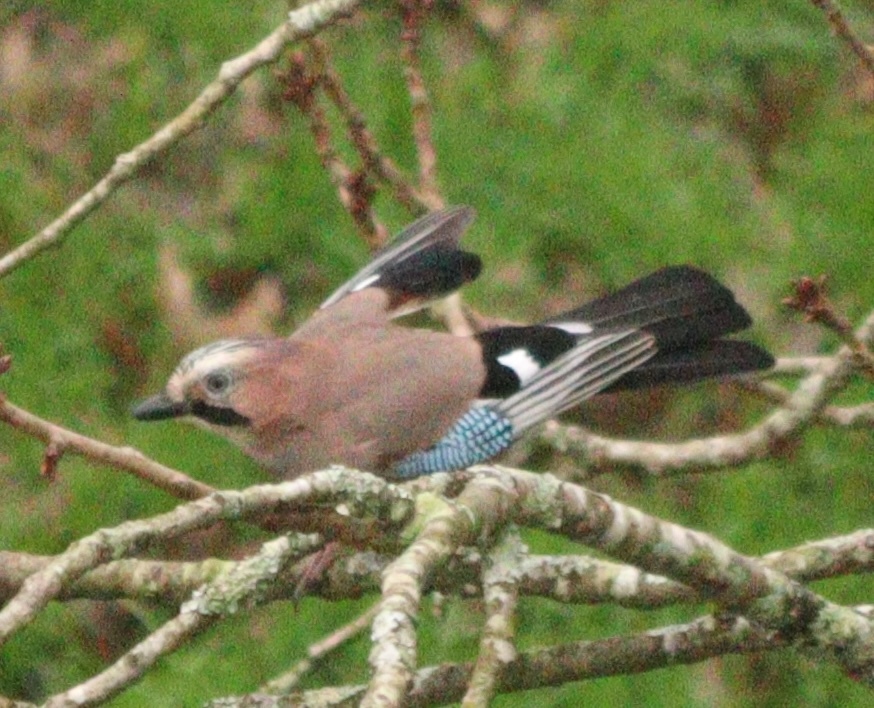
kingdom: Animalia
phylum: Chordata
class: Aves
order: Passeriformes
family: Corvidae
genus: Garrulus
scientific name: Garrulus glandarius
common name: Eurasian jay
